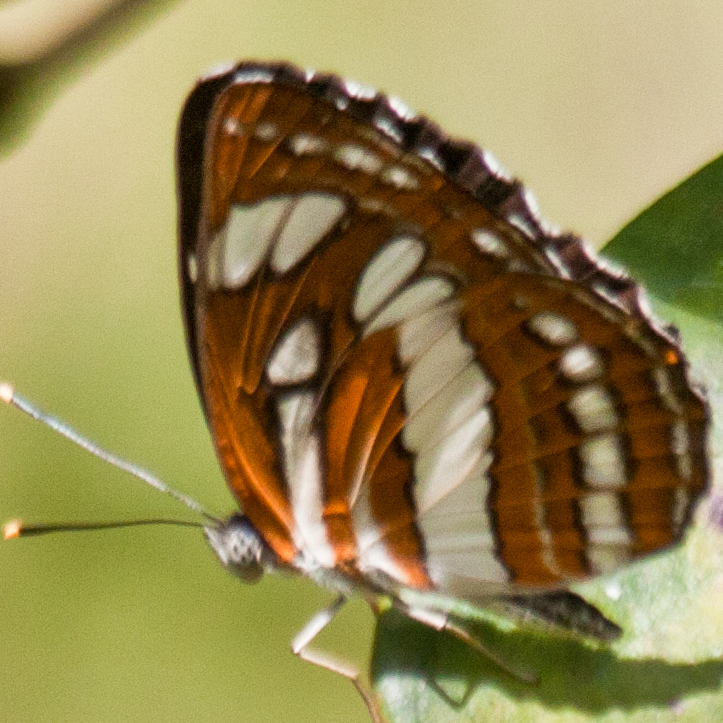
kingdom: Animalia
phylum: Arthropoda
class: Insecta
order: Lepidoptera
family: Nymphalidae
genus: Neptis
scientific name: Neptis hylas
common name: Common sailer
